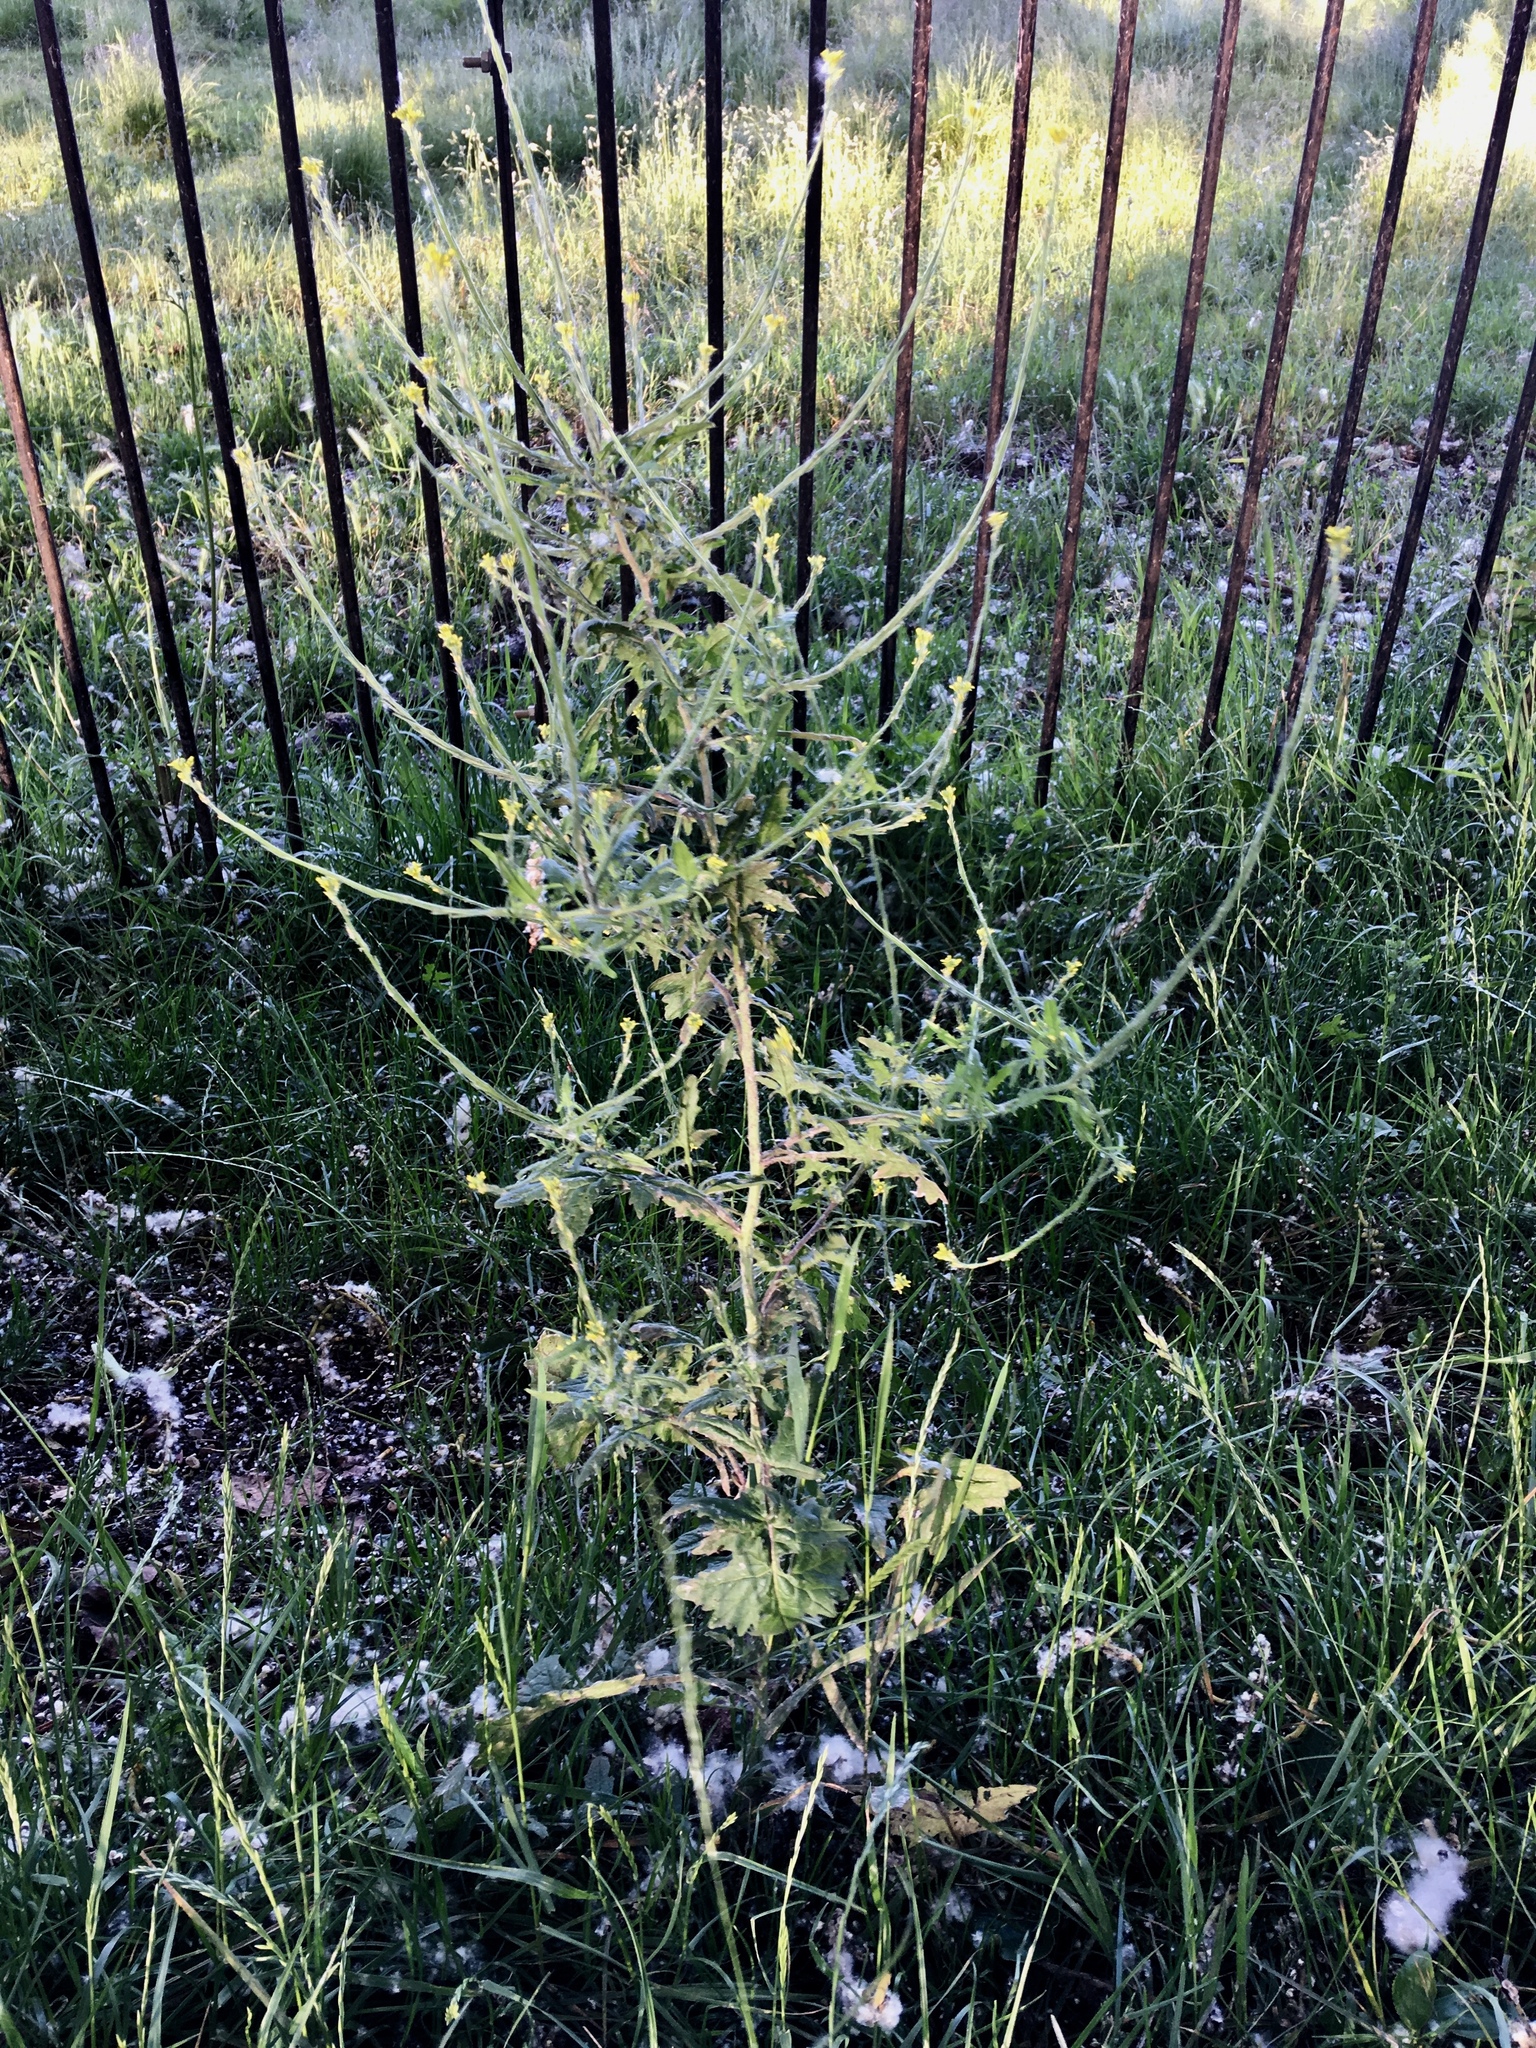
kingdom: Plantae
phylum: Tracheophyta
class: Magnoliopsida
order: Brassicales
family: Brassicaceae
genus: Sisymbrium
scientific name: Sisymbrium officinale
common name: Hedge mustard
